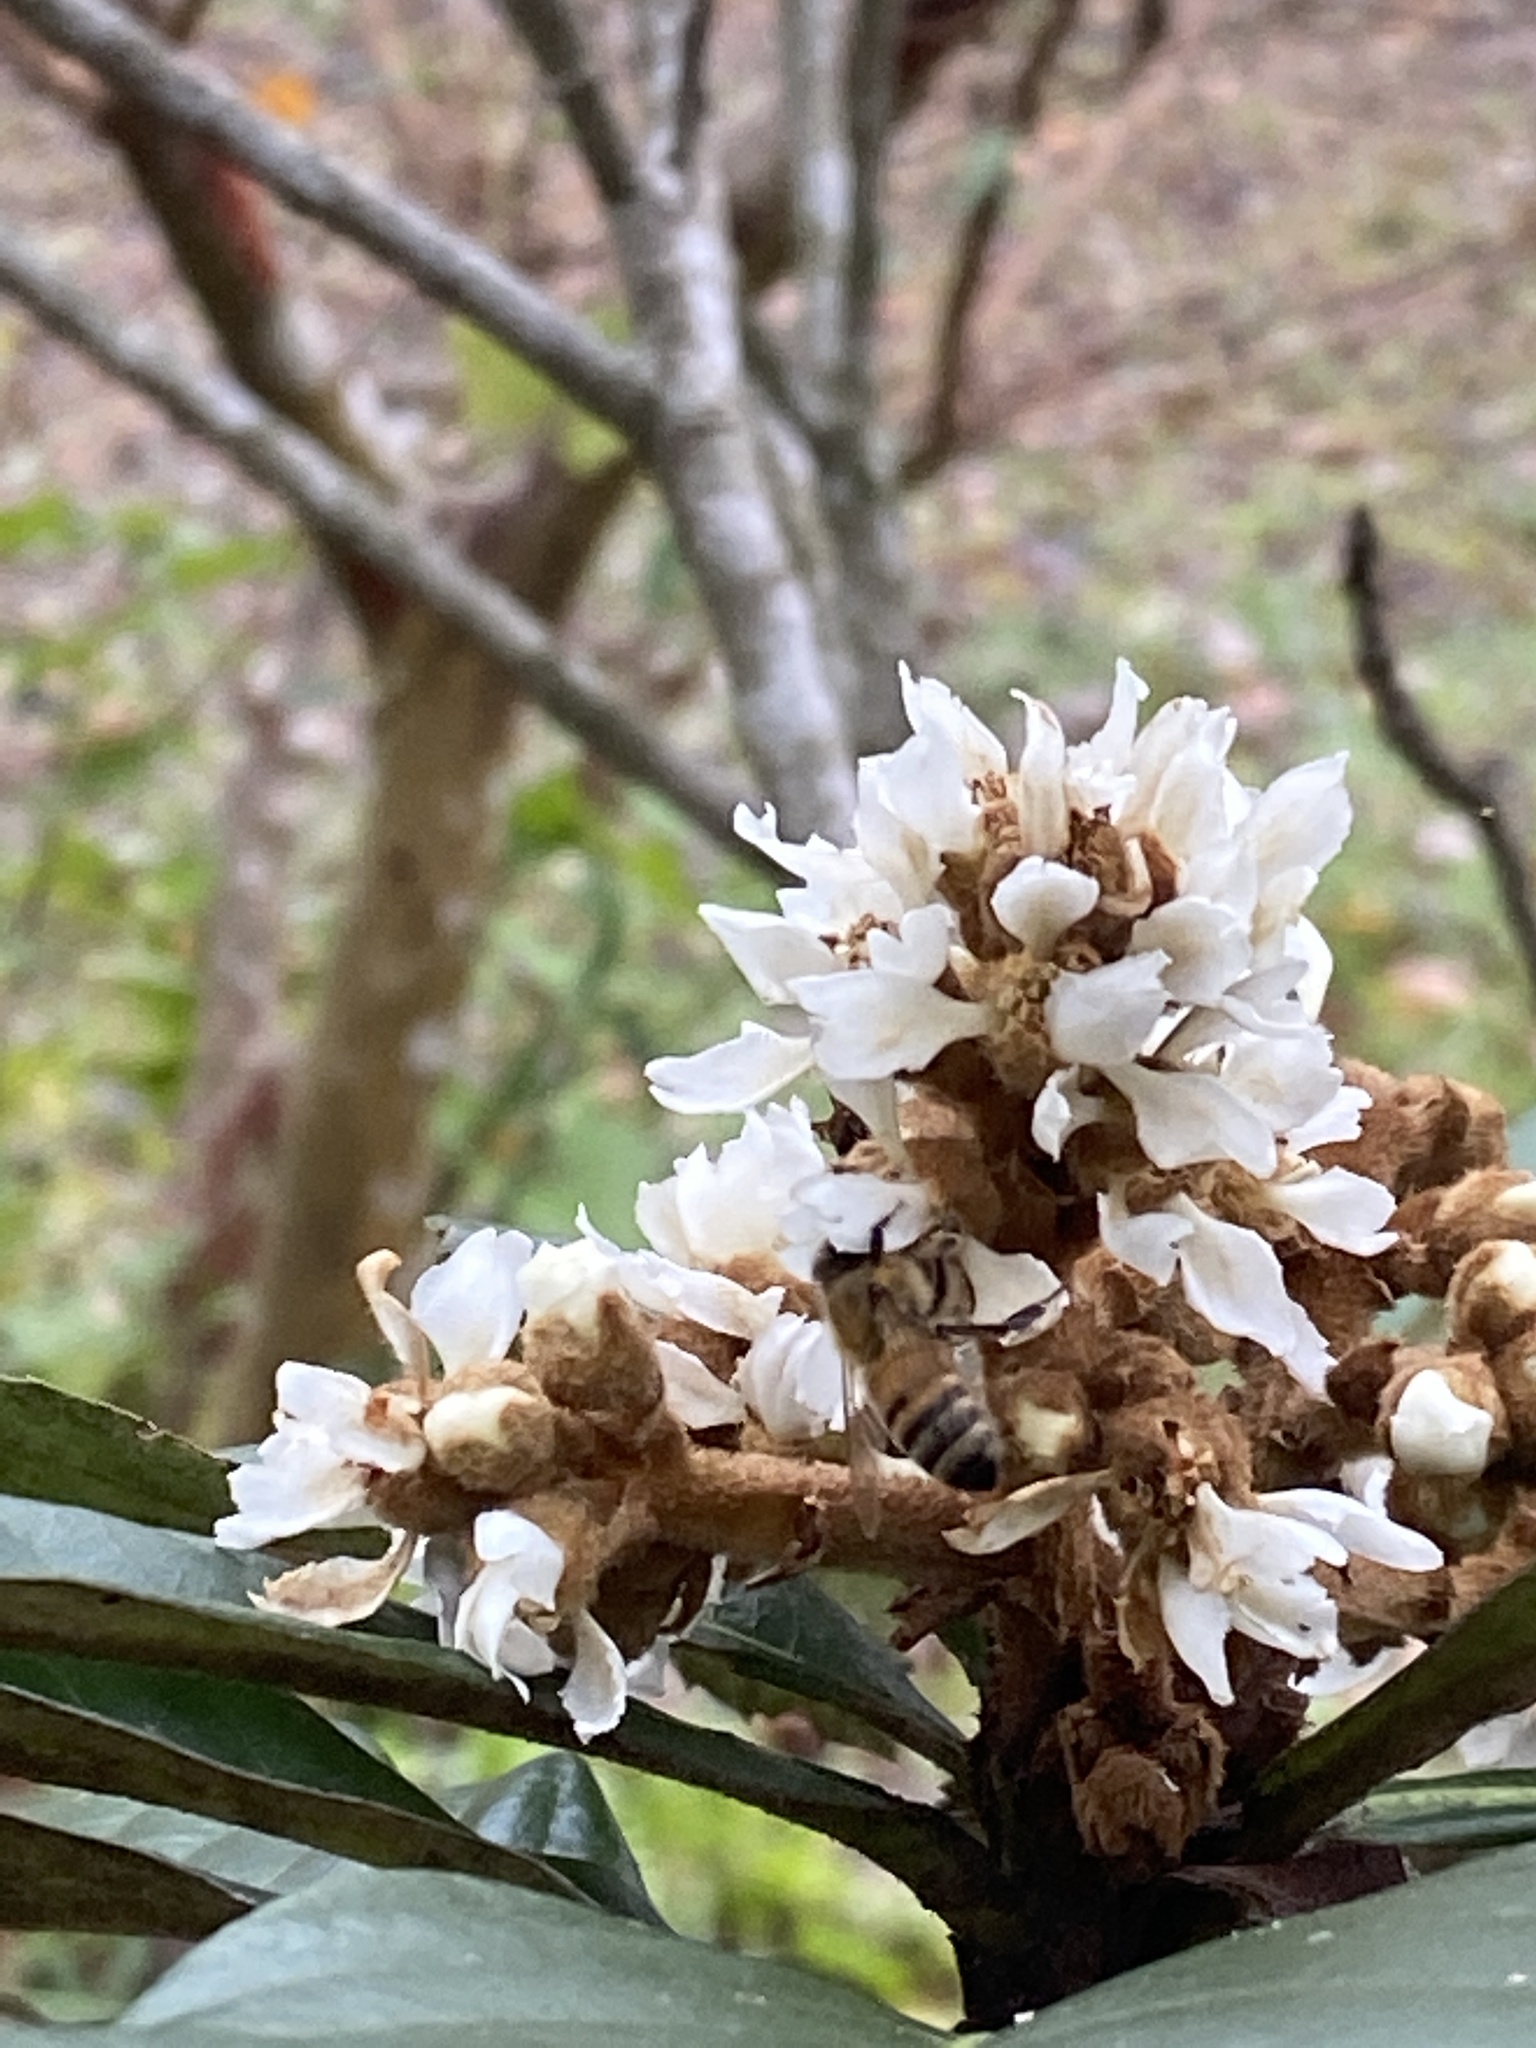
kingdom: Animalia
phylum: Arthropoda
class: Insecta
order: Hymenoptera
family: Apidae
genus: Apis
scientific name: Apis mellifera
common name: Honey bee
